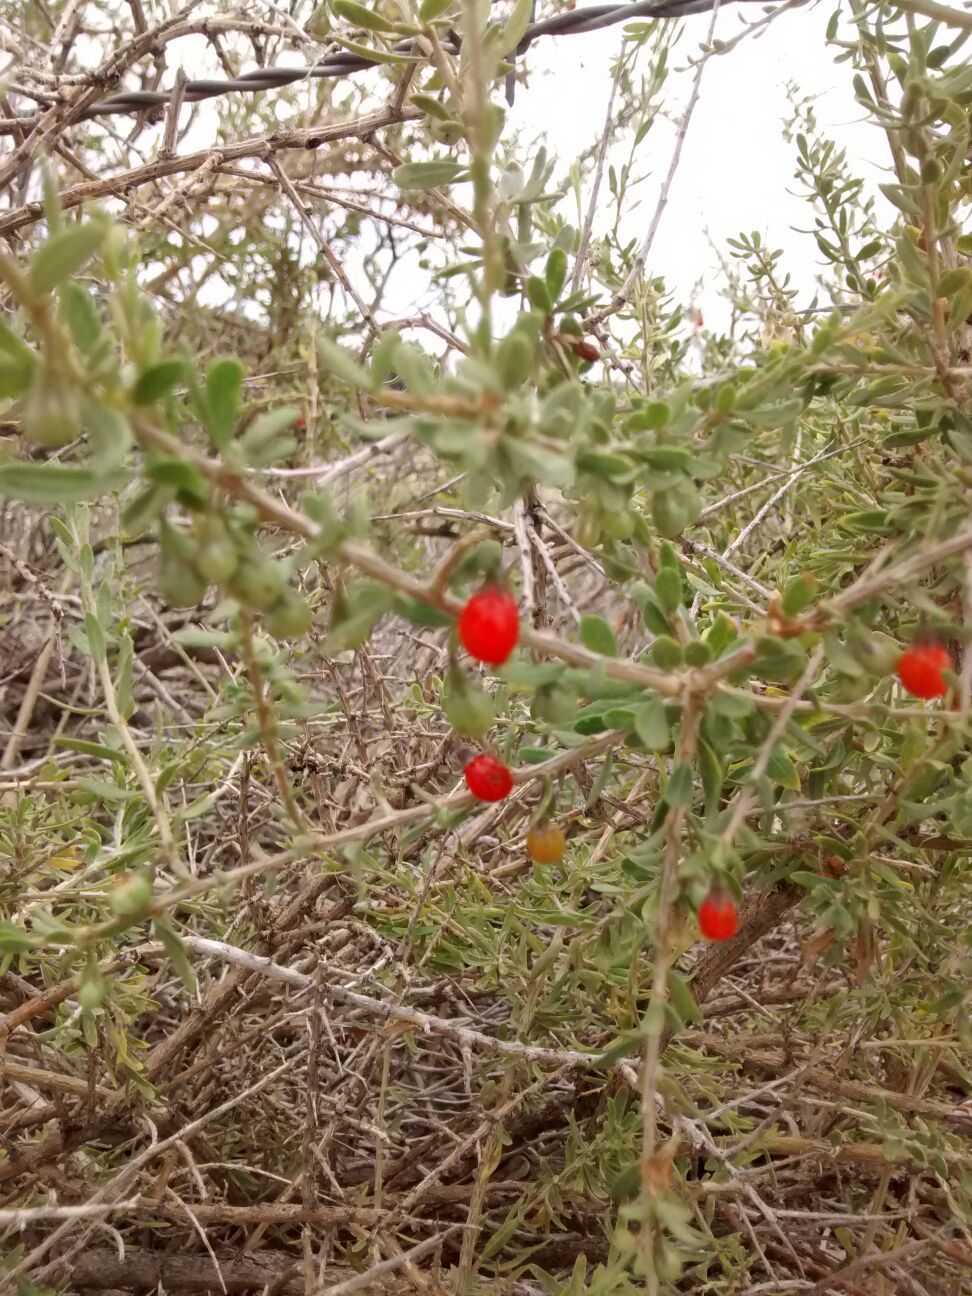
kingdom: Plantae
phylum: Tracheophyta
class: Magnoliopsida
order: Solanales
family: Solanaceae
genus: Lycium
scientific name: Lycium chilense
